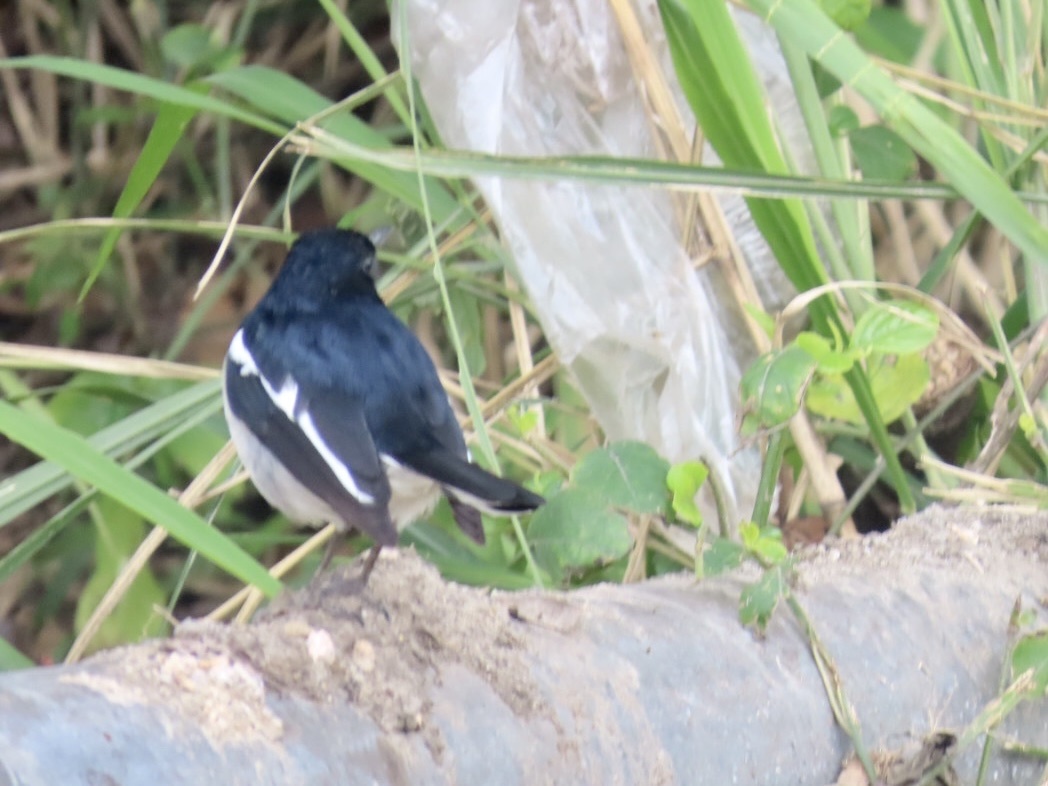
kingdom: Animalia
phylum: Chordata
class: Aves
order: Passeriformes
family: Muscicapidae
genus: Copsychus
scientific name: Copsychus saularis
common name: Oriental magpie-robin
